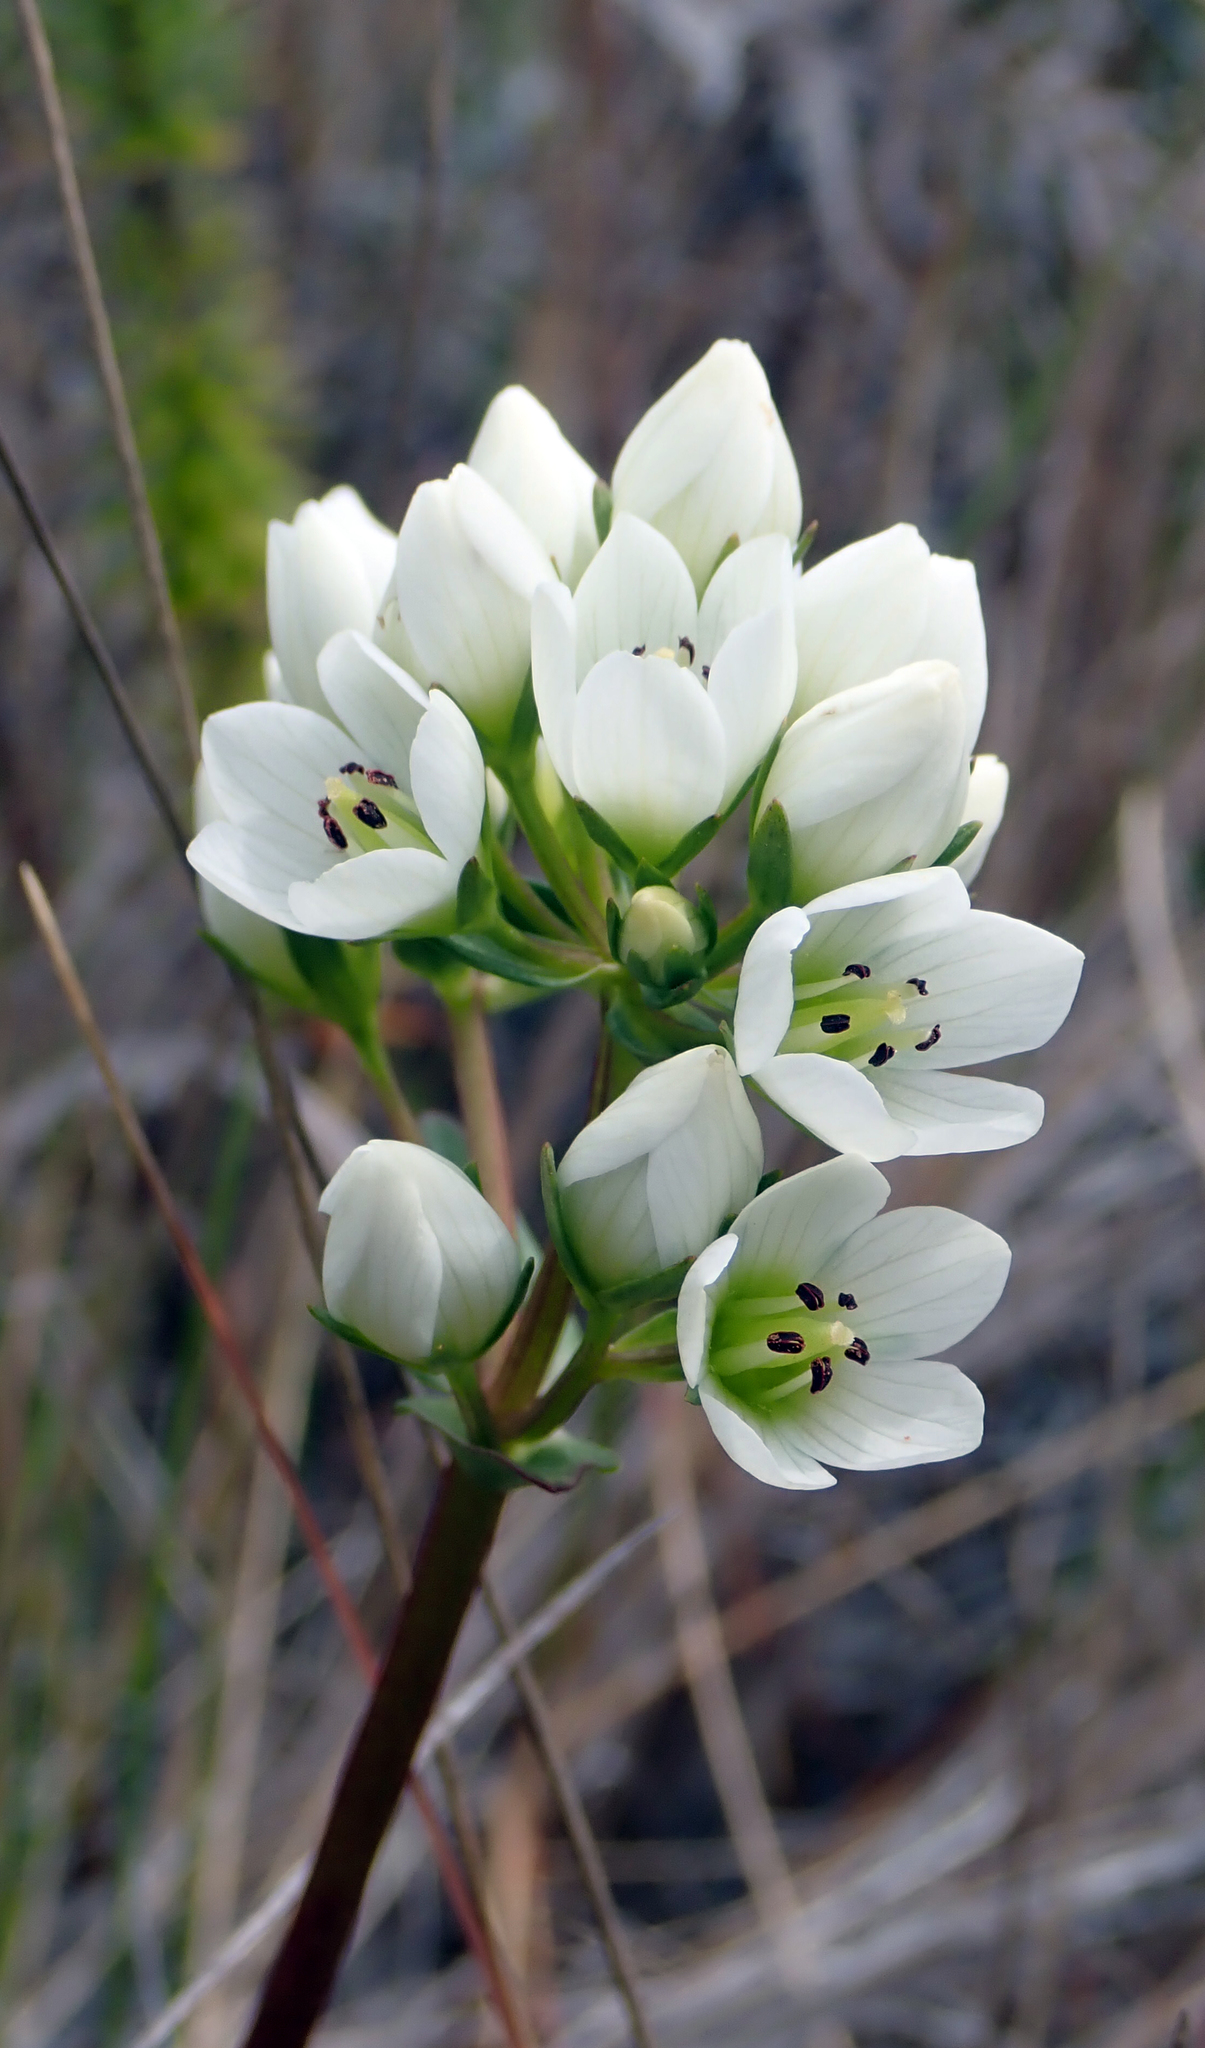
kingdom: Plantae
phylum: Tracheophyta
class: Magnoliopsida
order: Gentianales
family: Gentianaceae
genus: Gentianella
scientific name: Gentianella chathamica
